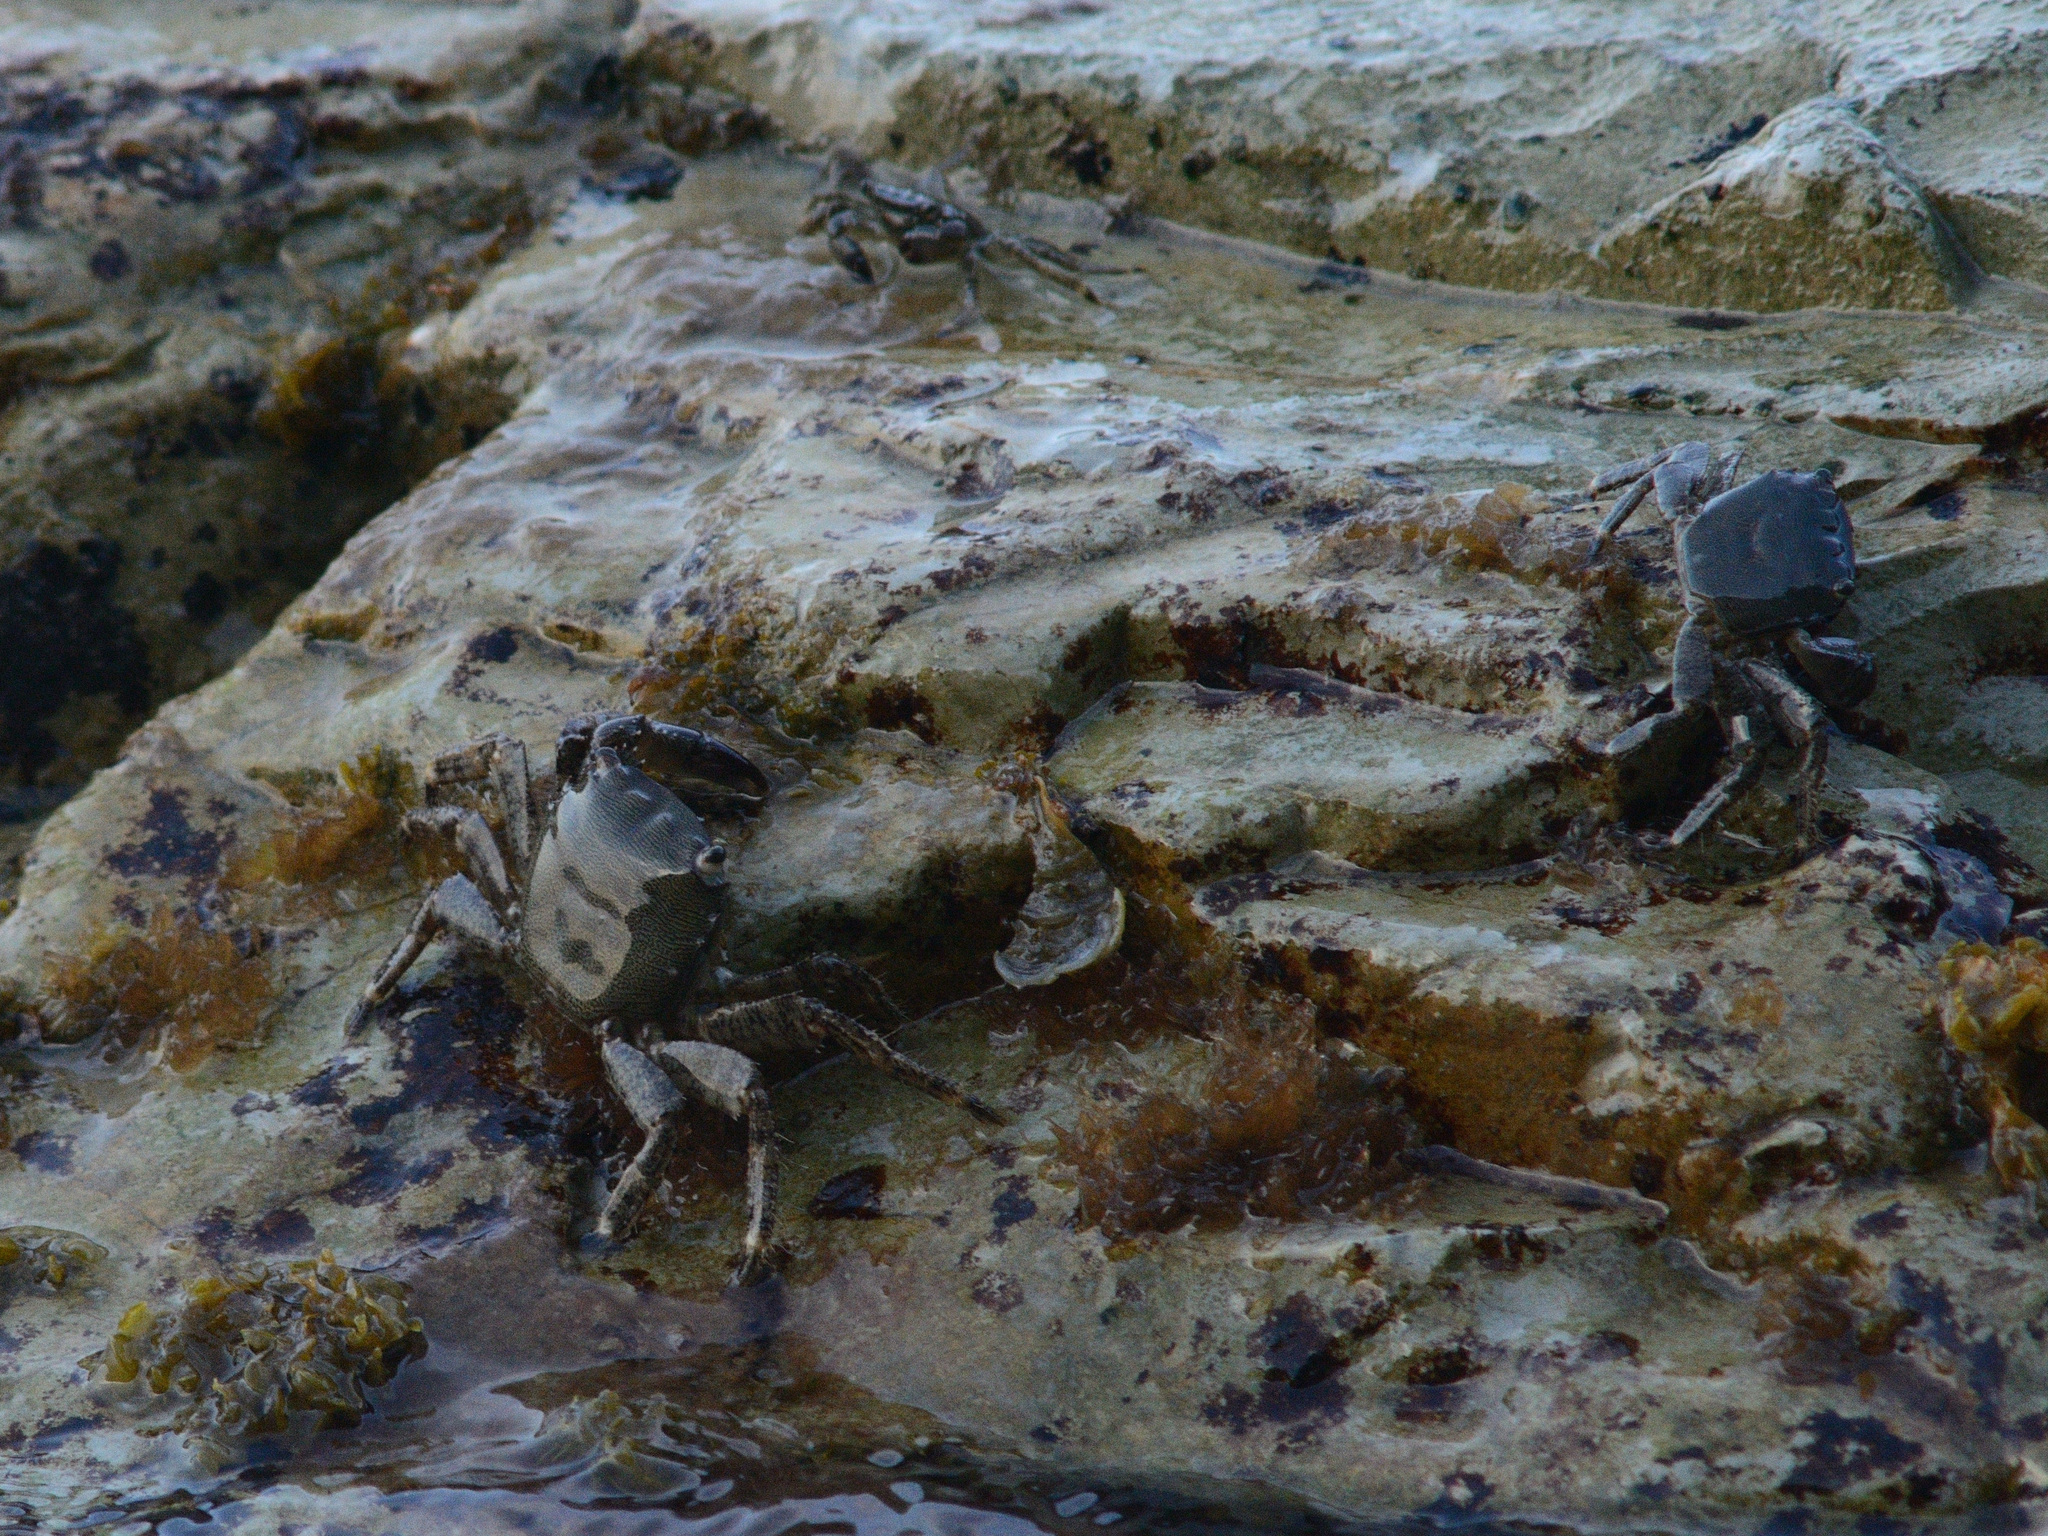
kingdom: Animalia
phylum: Arthropoda
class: Malacostraca
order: Decapoda
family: Grapsidae
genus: Pachygrapsus
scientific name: Pachygrapsus marmoratus
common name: Marbled rock crab
